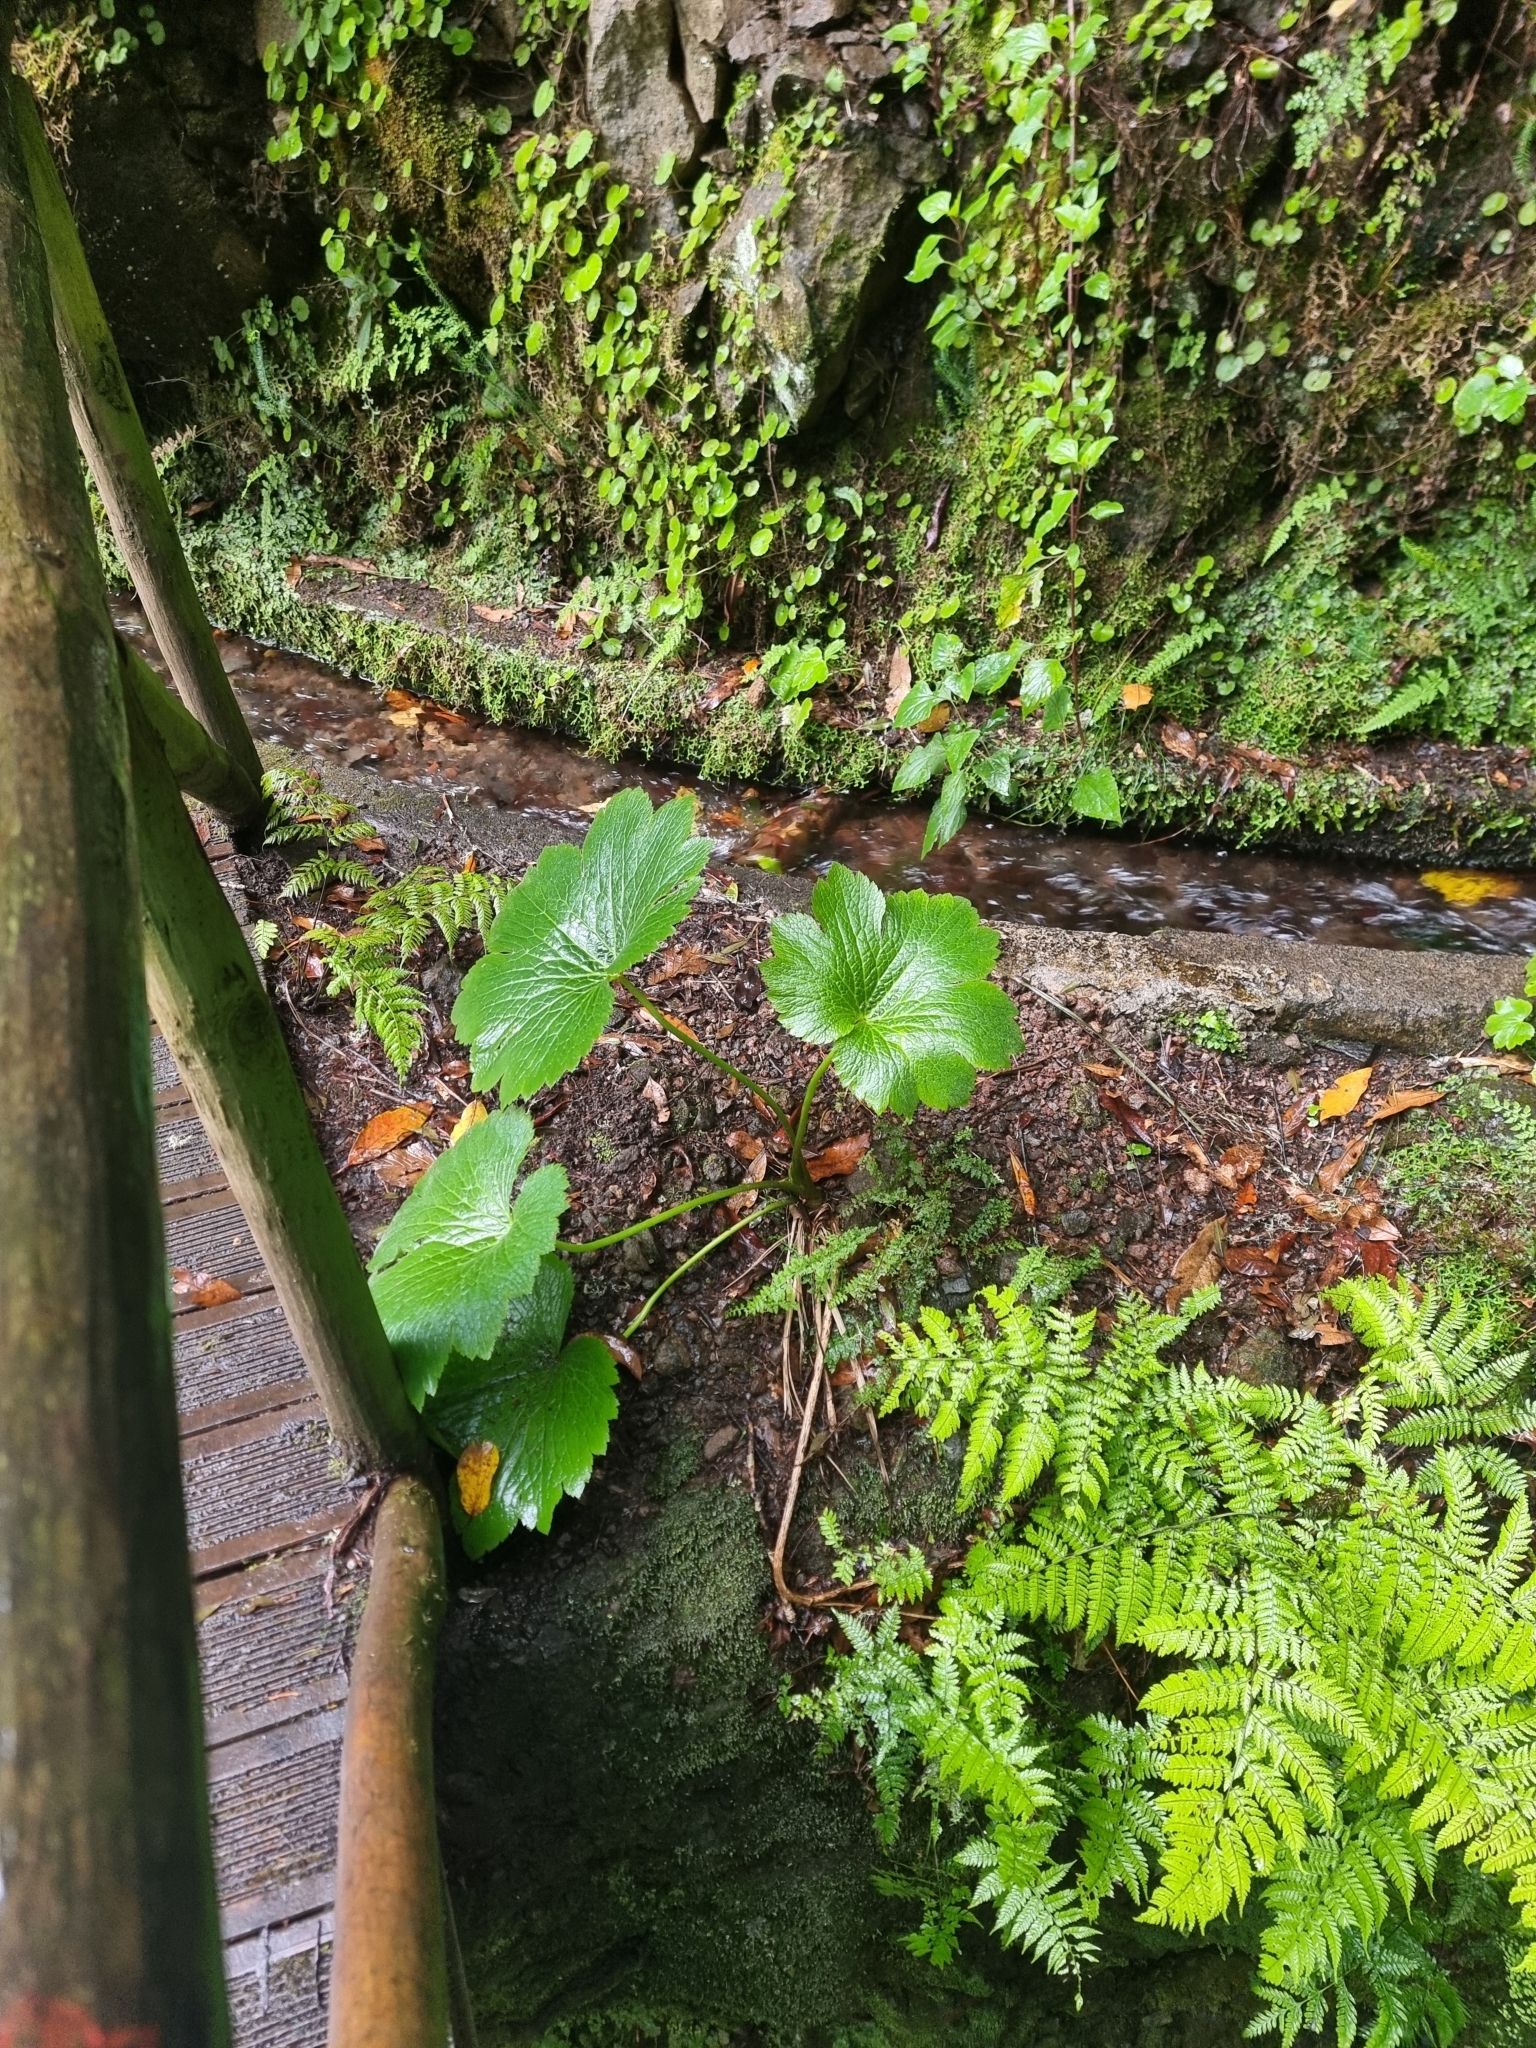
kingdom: Plantae
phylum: Tracheophyta
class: Magnoliopsida
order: Ranunculales
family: Ranunculaceae
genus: Ranunculus
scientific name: Ranunculus cortusifolius
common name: Azores buttercup
